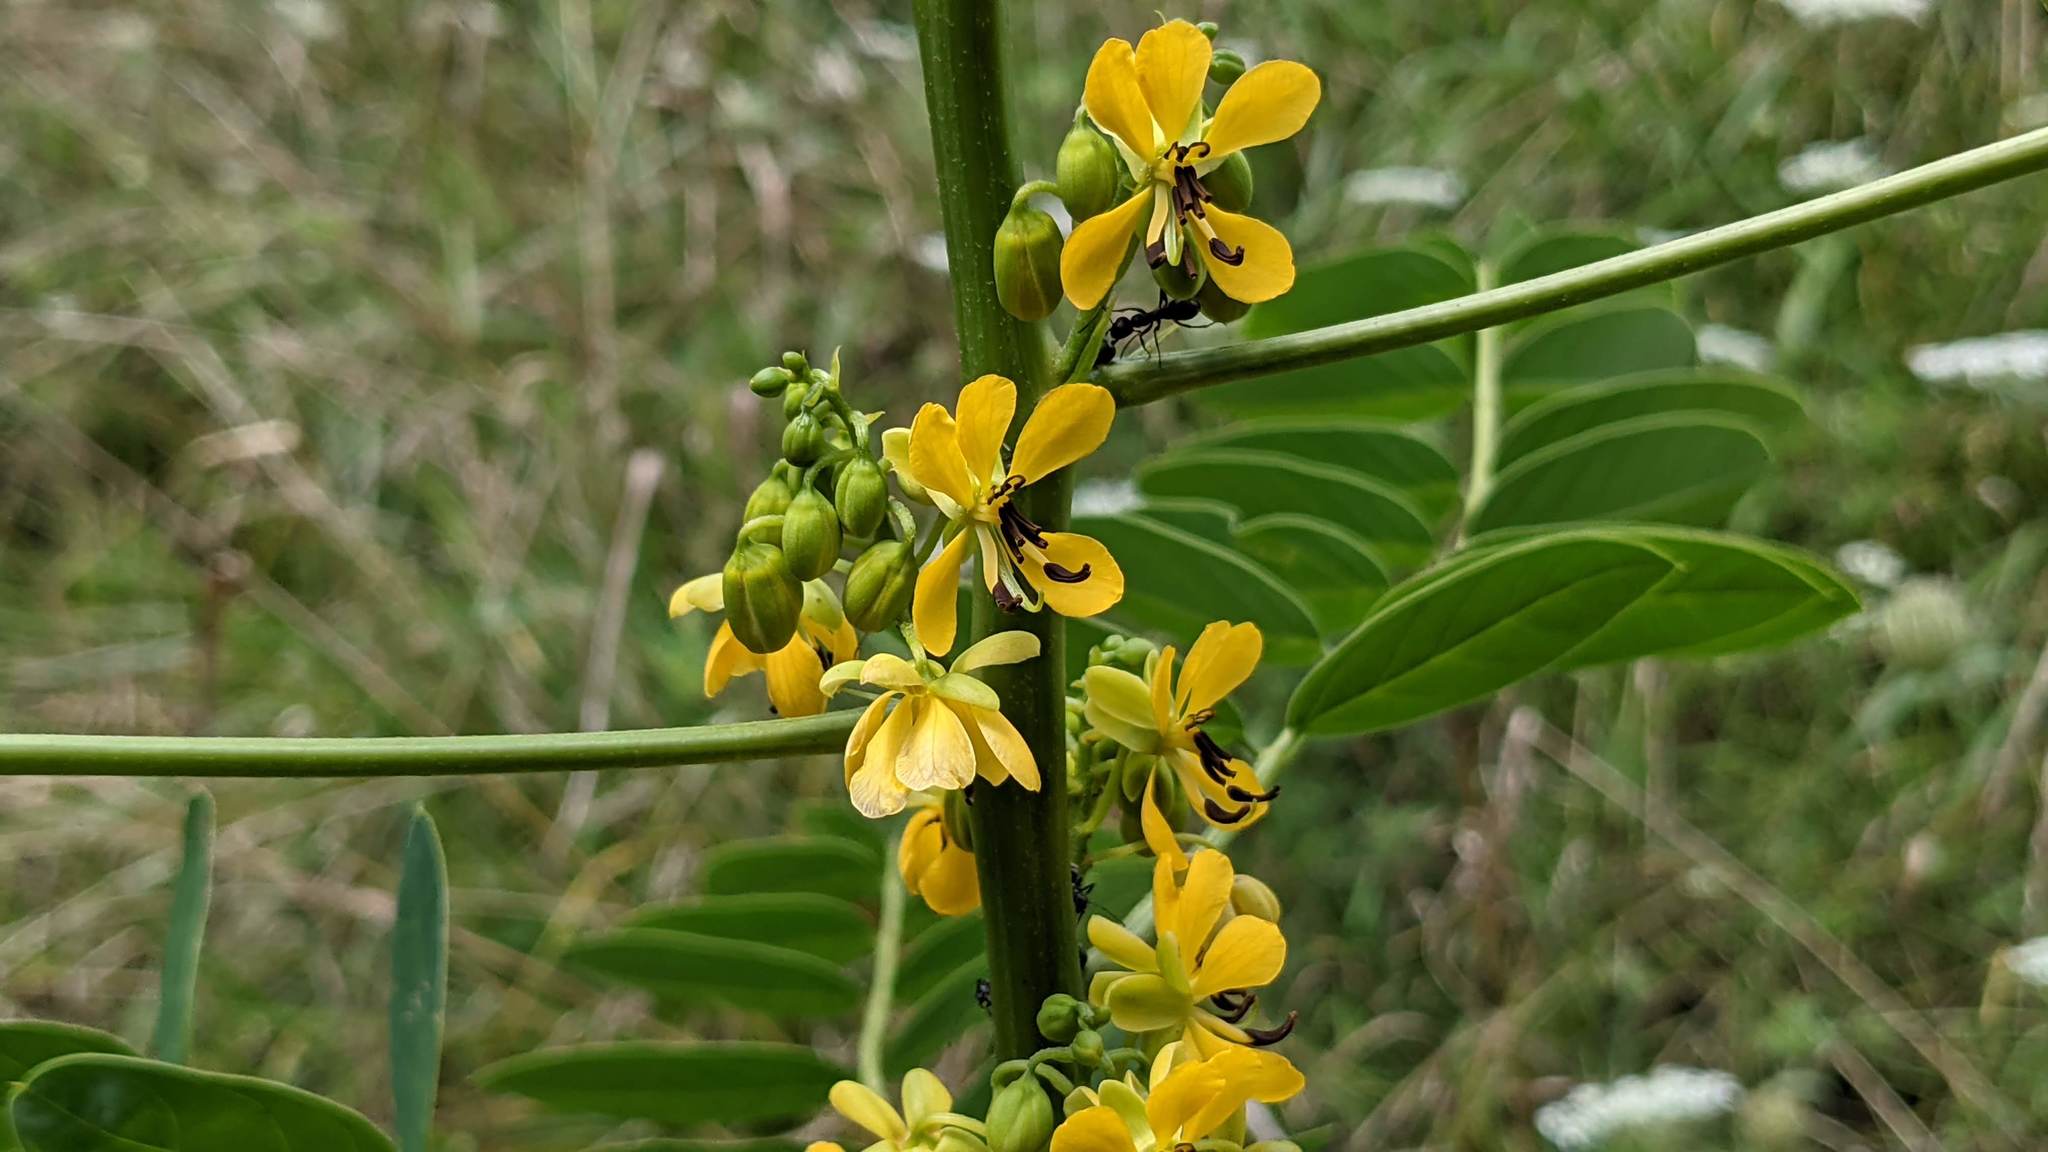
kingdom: Plantae
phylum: Tracheophyta
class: Magnoliopsida
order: Fabales
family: Fabaceae
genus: Senna
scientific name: Senna marilandica
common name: American senna
